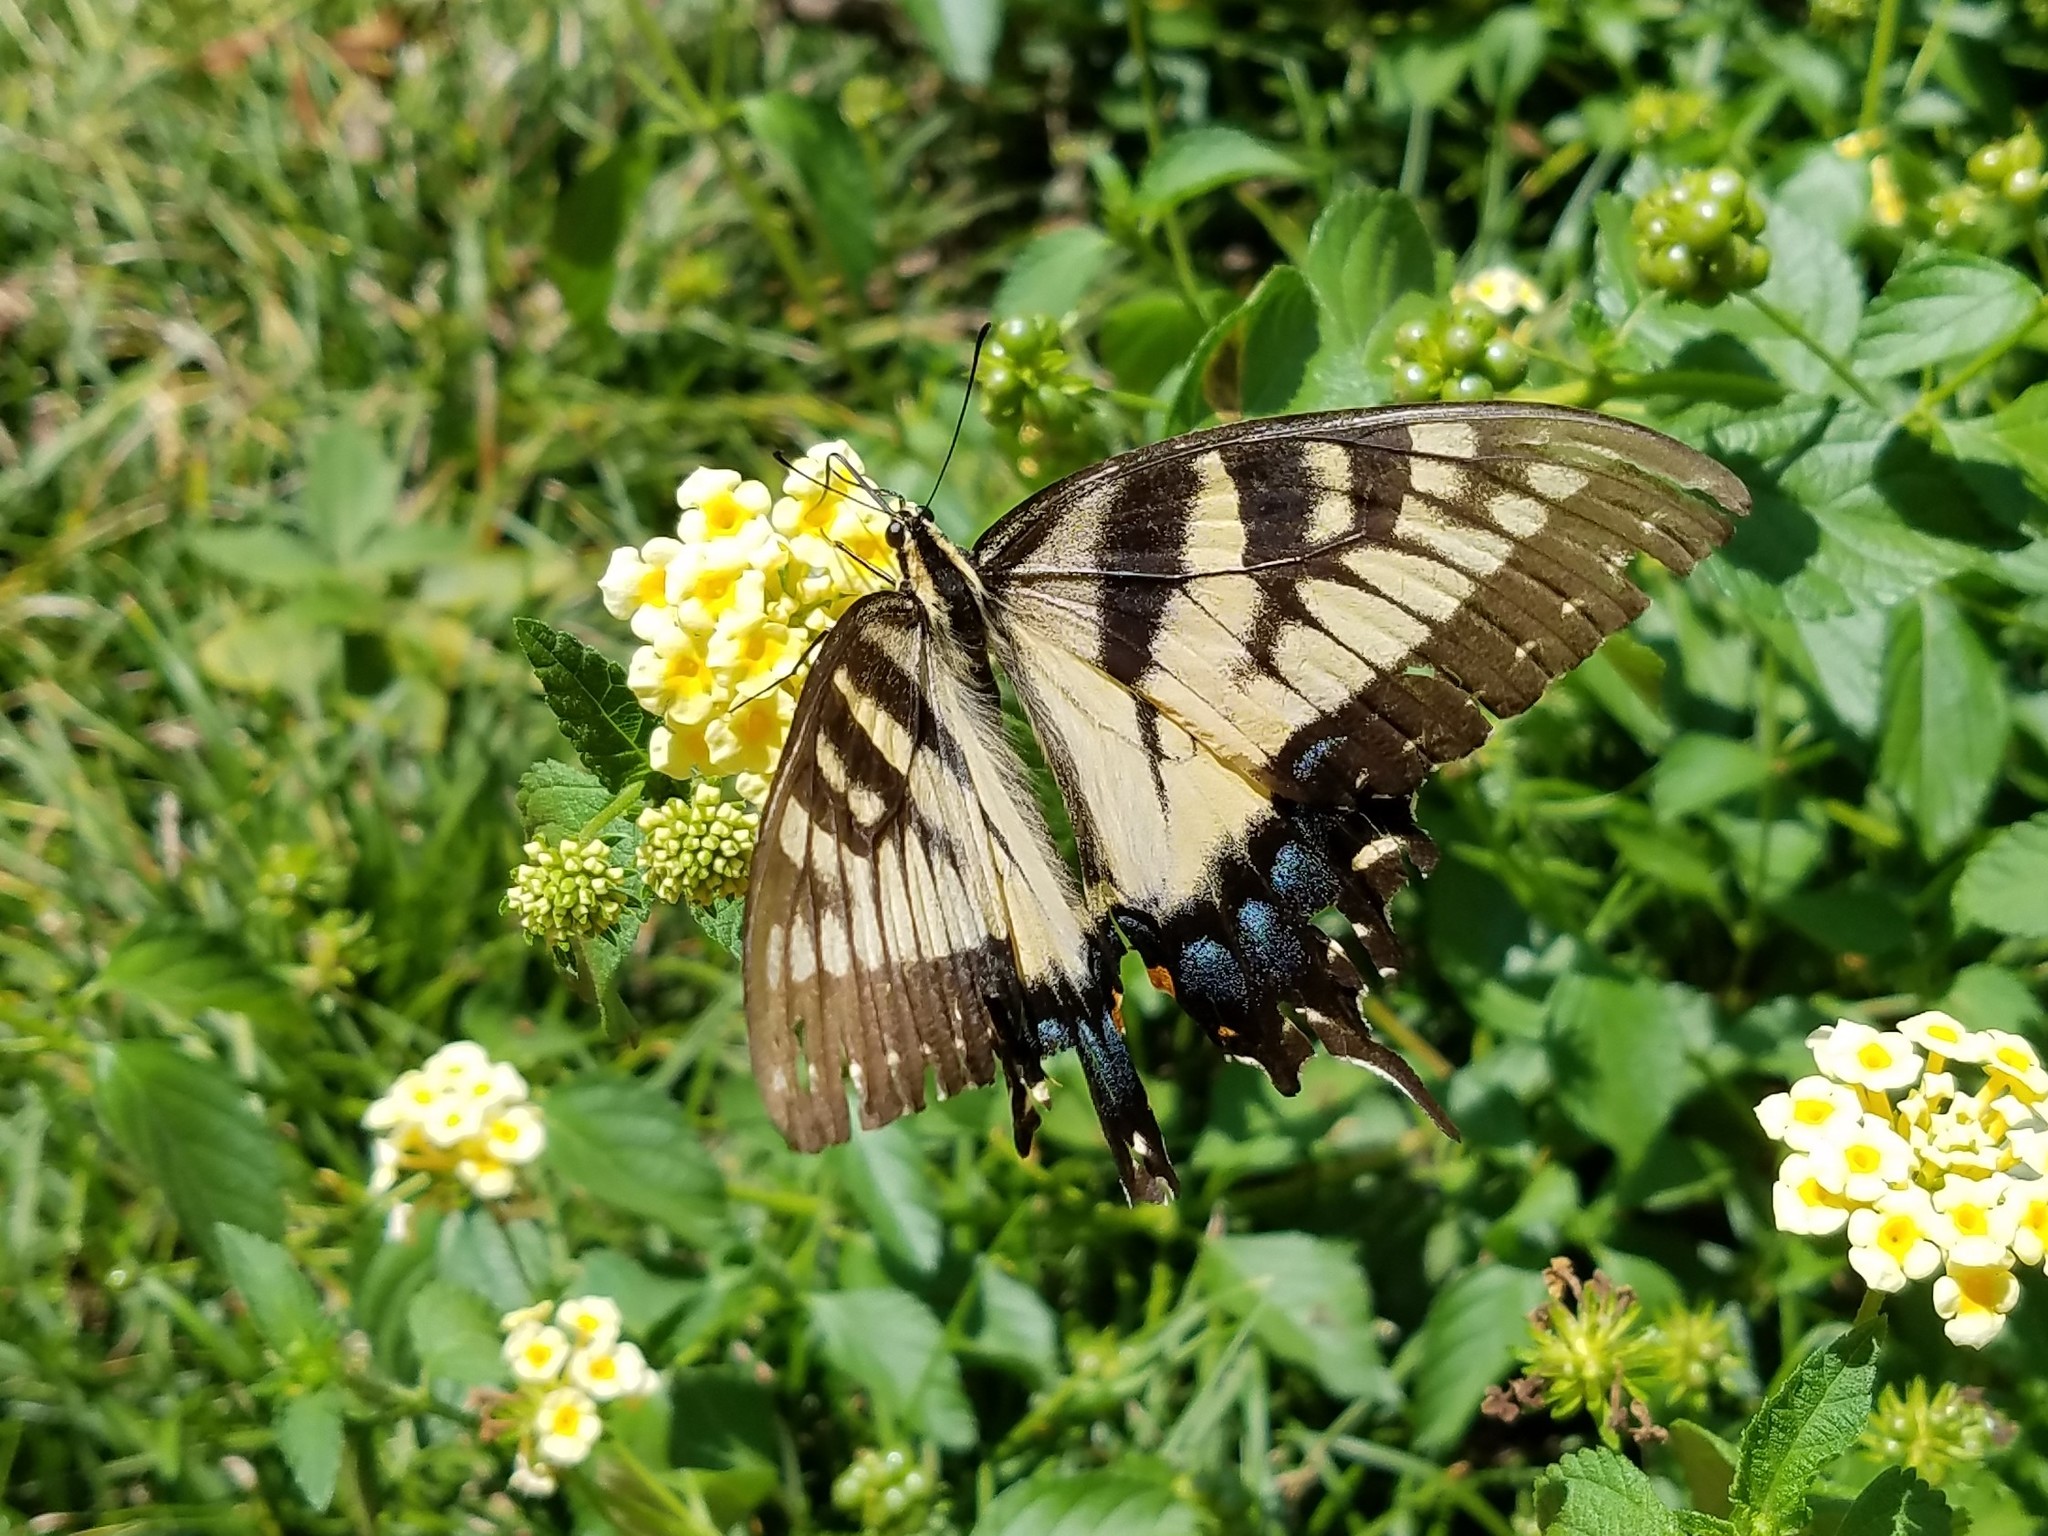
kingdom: Animalia
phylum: Arthropoda
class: Insecta
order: Lepidoptera
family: Papilionidae
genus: Papilio
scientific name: Papilio glaucus
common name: Tiger swallowtail
